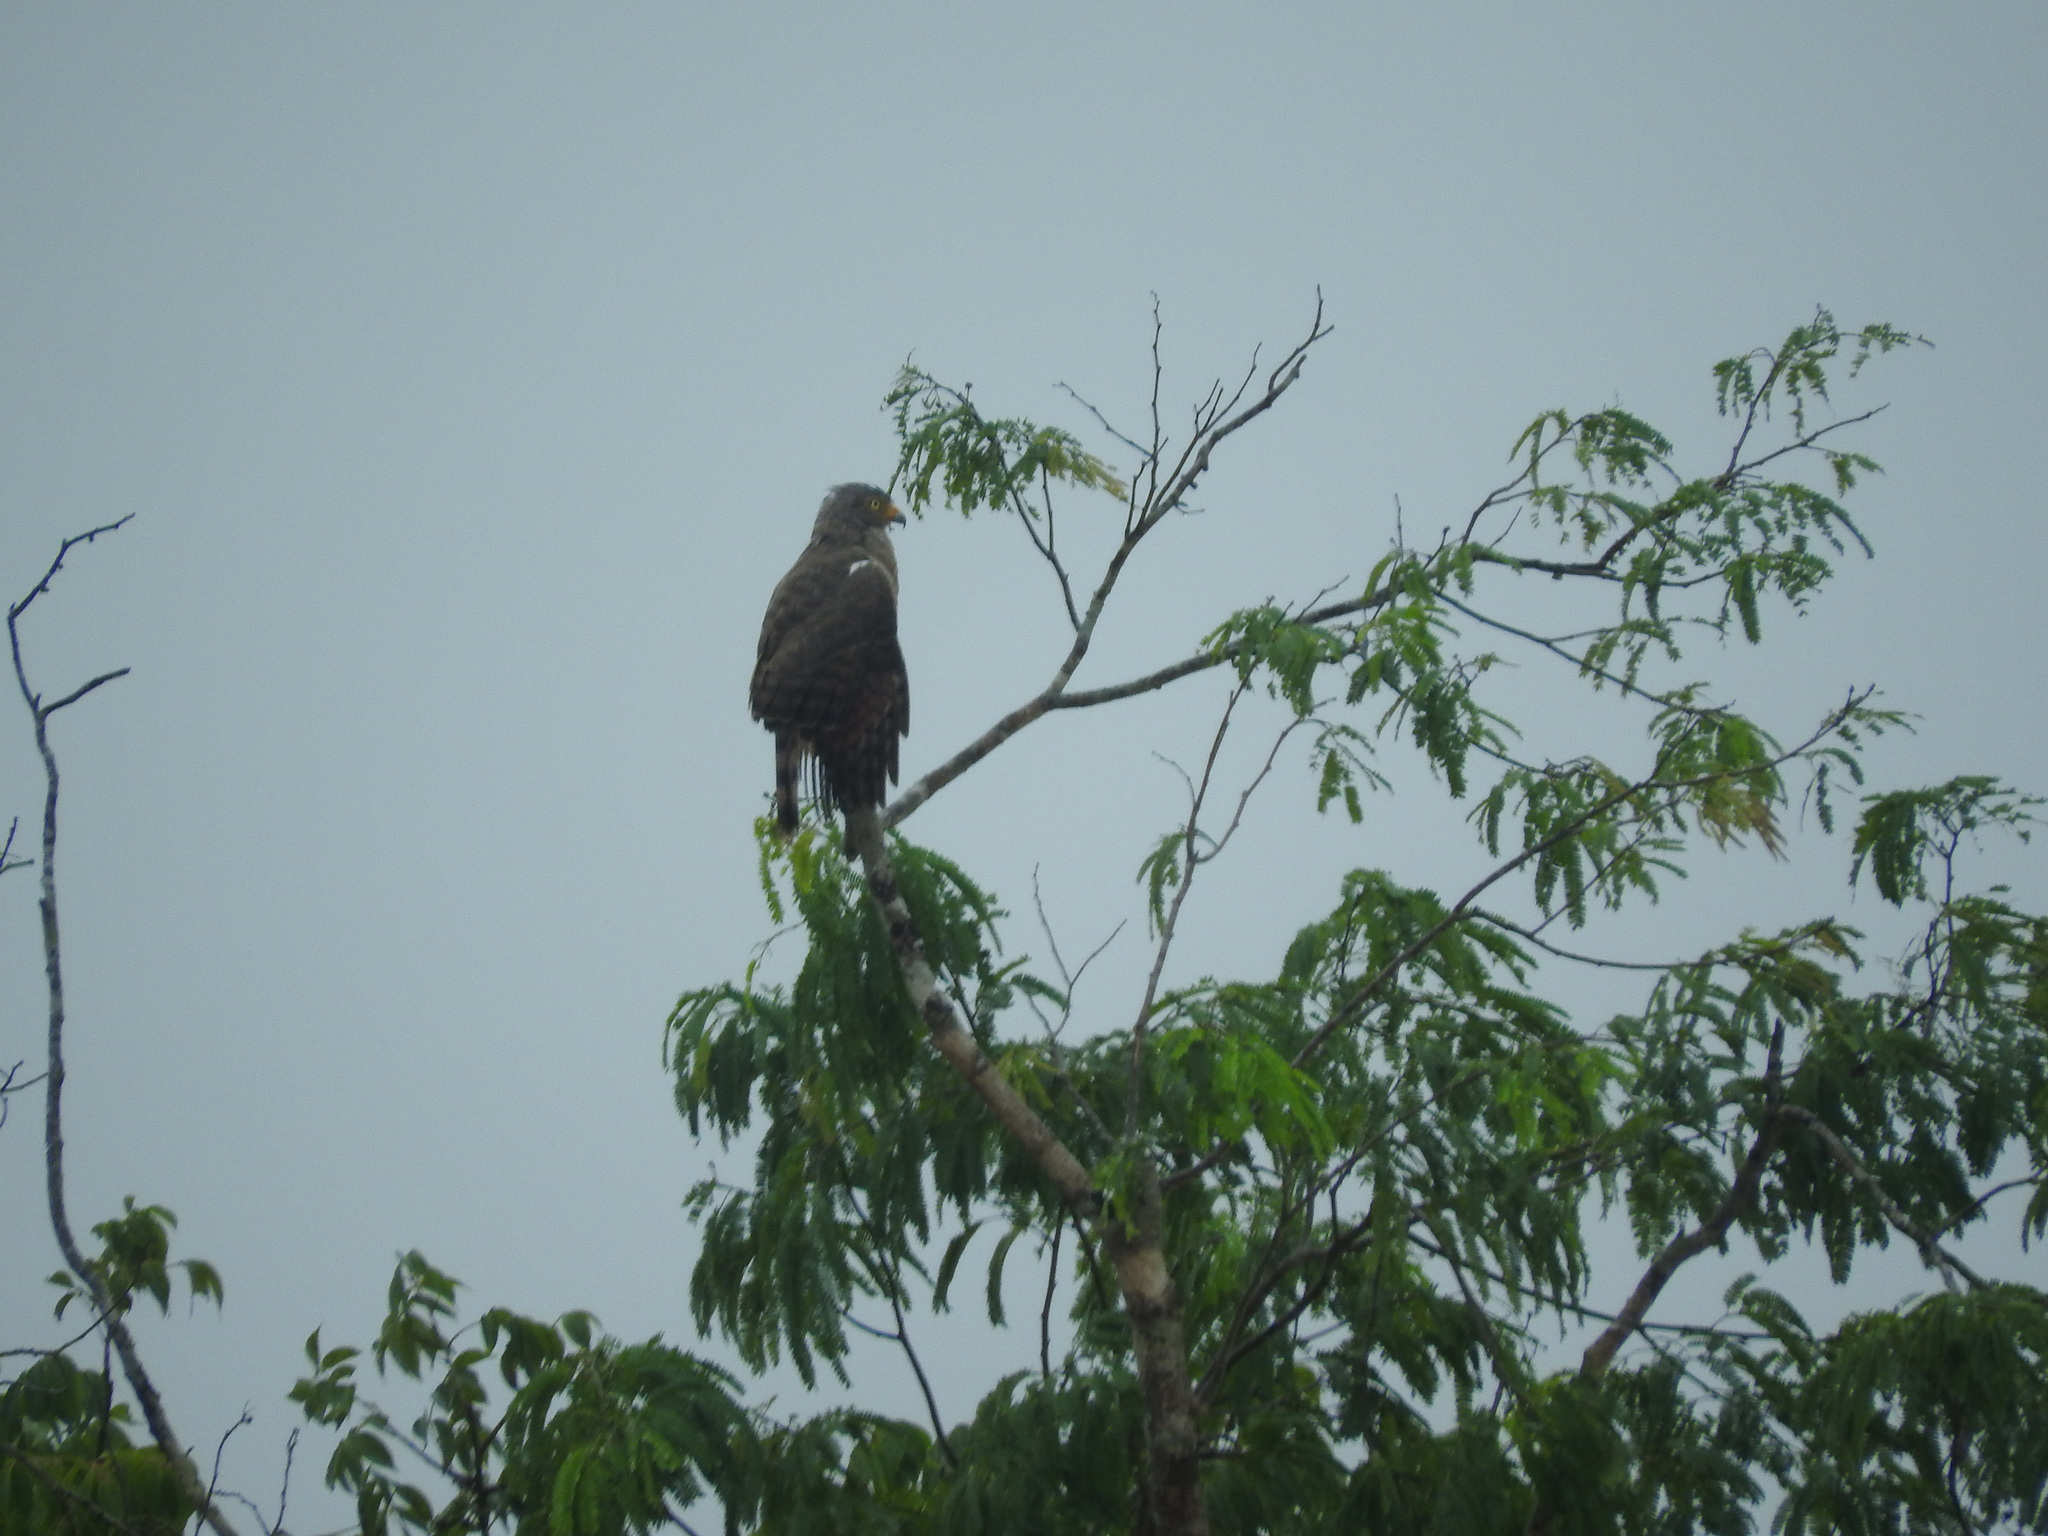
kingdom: Animalia
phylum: Chordata
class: Aves
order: Accipitriformes
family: Accipitridae
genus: Rupornis
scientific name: Rupornis magnirostris
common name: Roadside hawk
